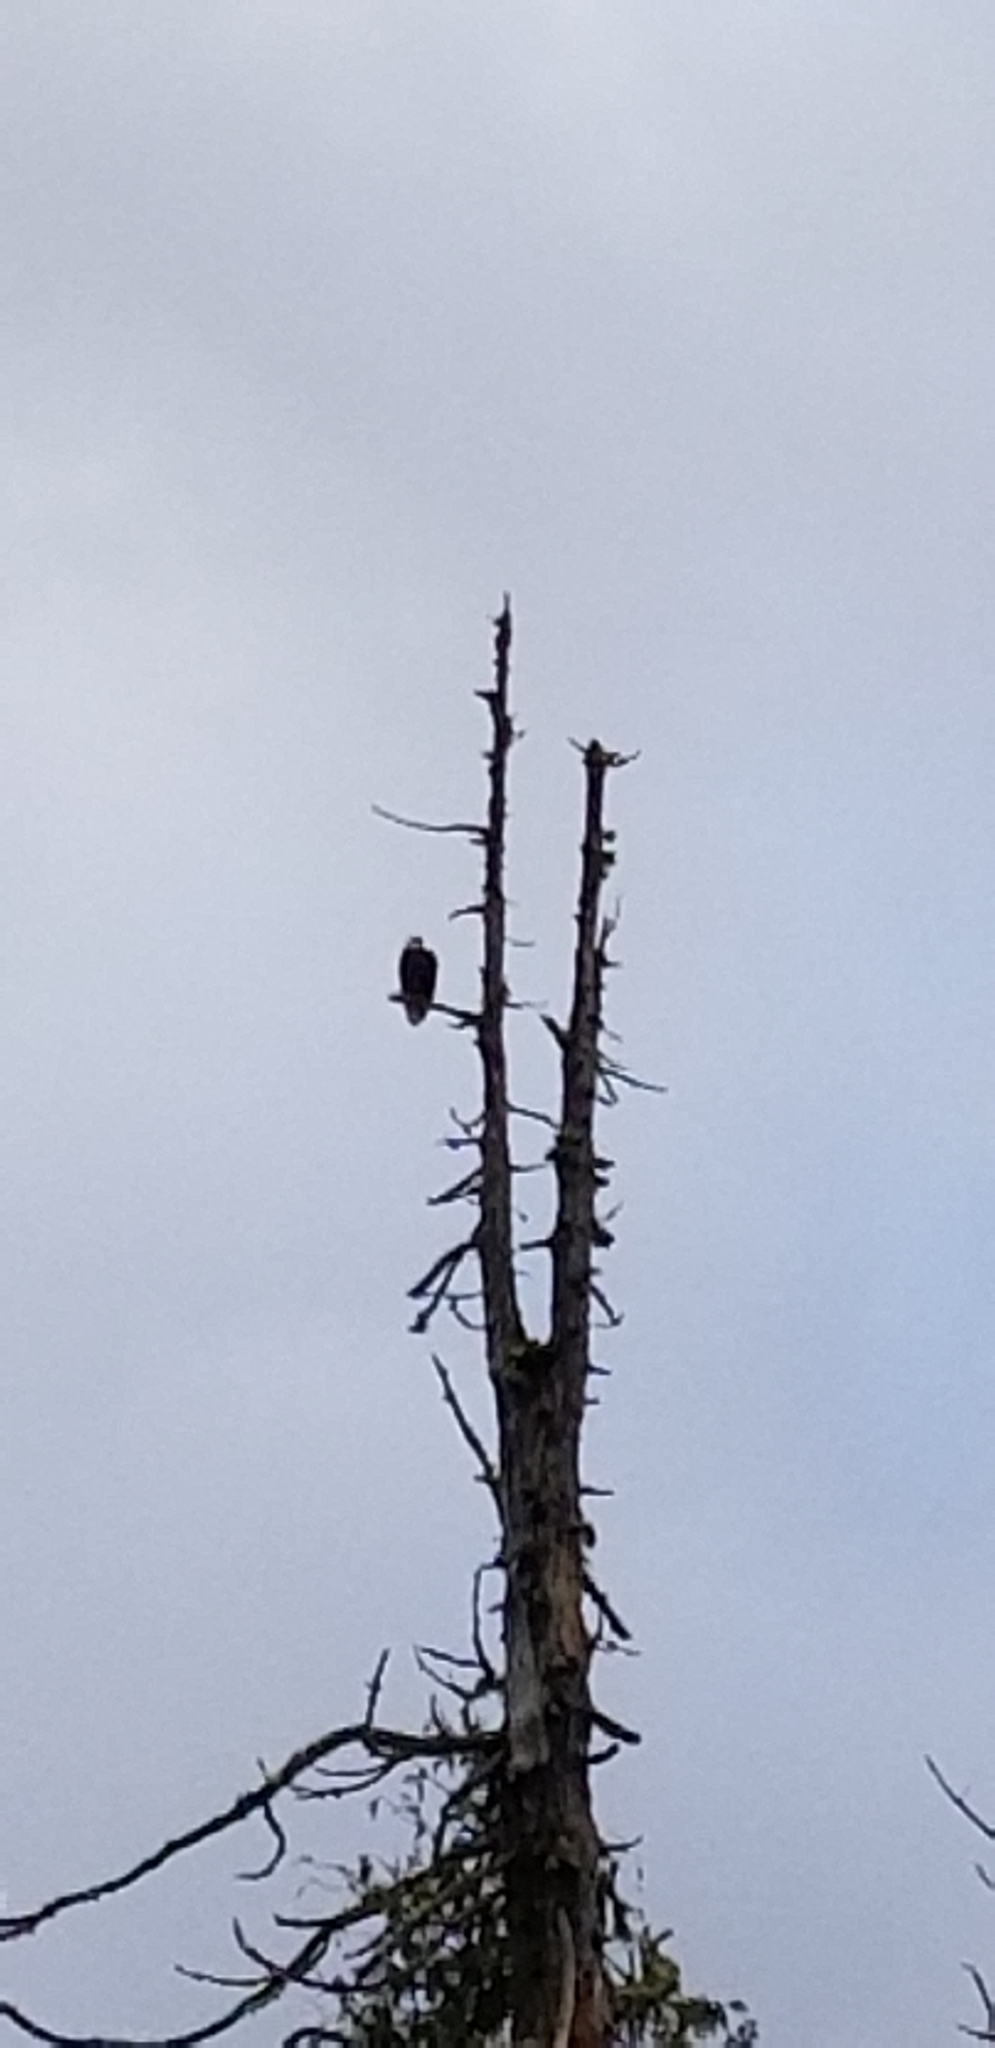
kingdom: Animalia
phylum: Chordata
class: Aves
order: Accipitriformes
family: Accipitridae
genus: Haliaeetus
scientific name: Haliaeetus leucocephalus
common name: Bald eagle
